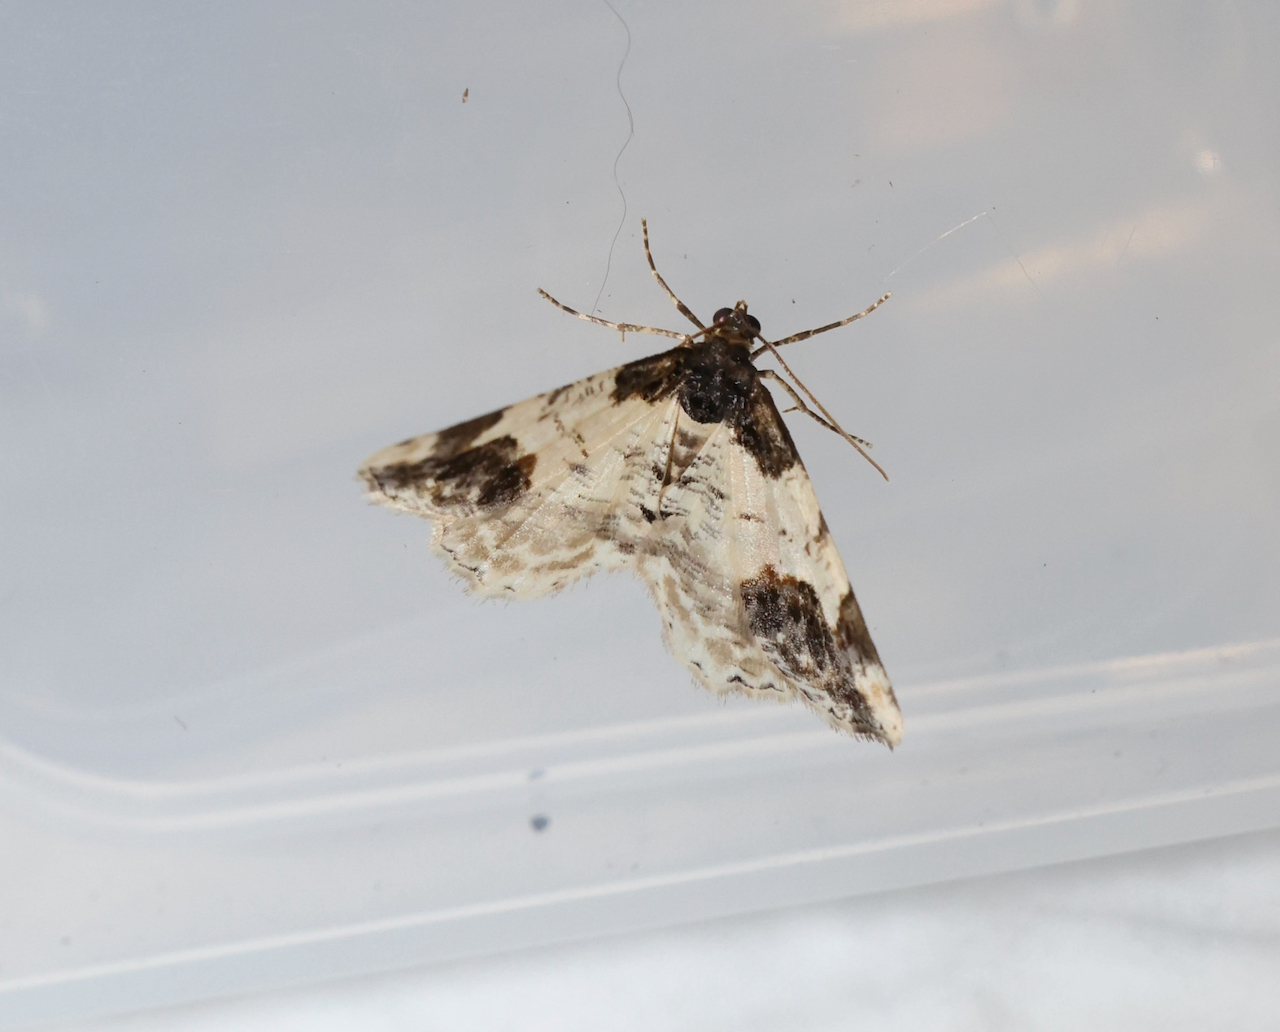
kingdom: Animalia
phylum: Arthropoda
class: Insecta
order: Lepidoptera
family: Geometridae
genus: Ligdia
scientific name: Ligdia adustata
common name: Scorched carpet
